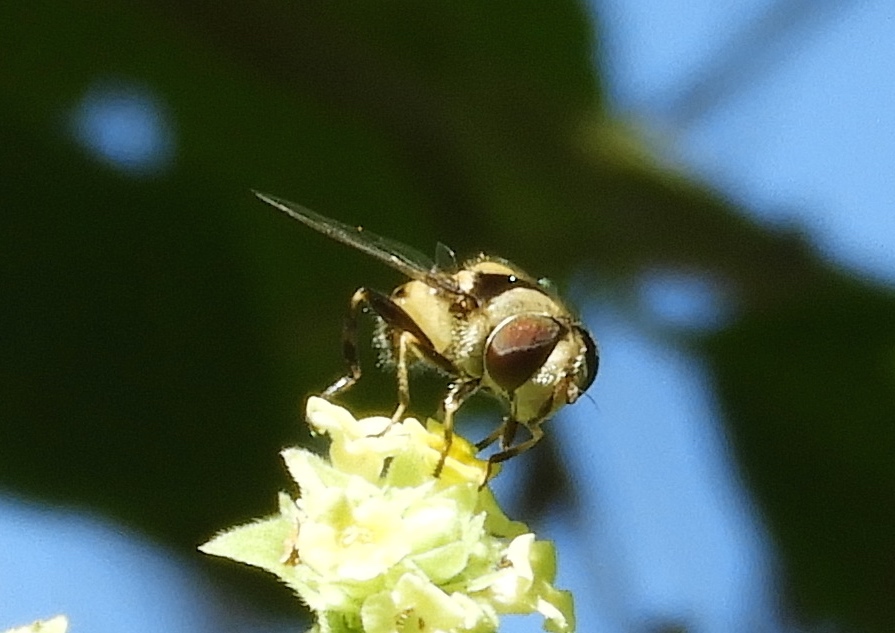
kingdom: Animalia
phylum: Arthropoda
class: Insecta
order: Diptera
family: Syrphidae
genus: Palpada
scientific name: Palpada pusilla
